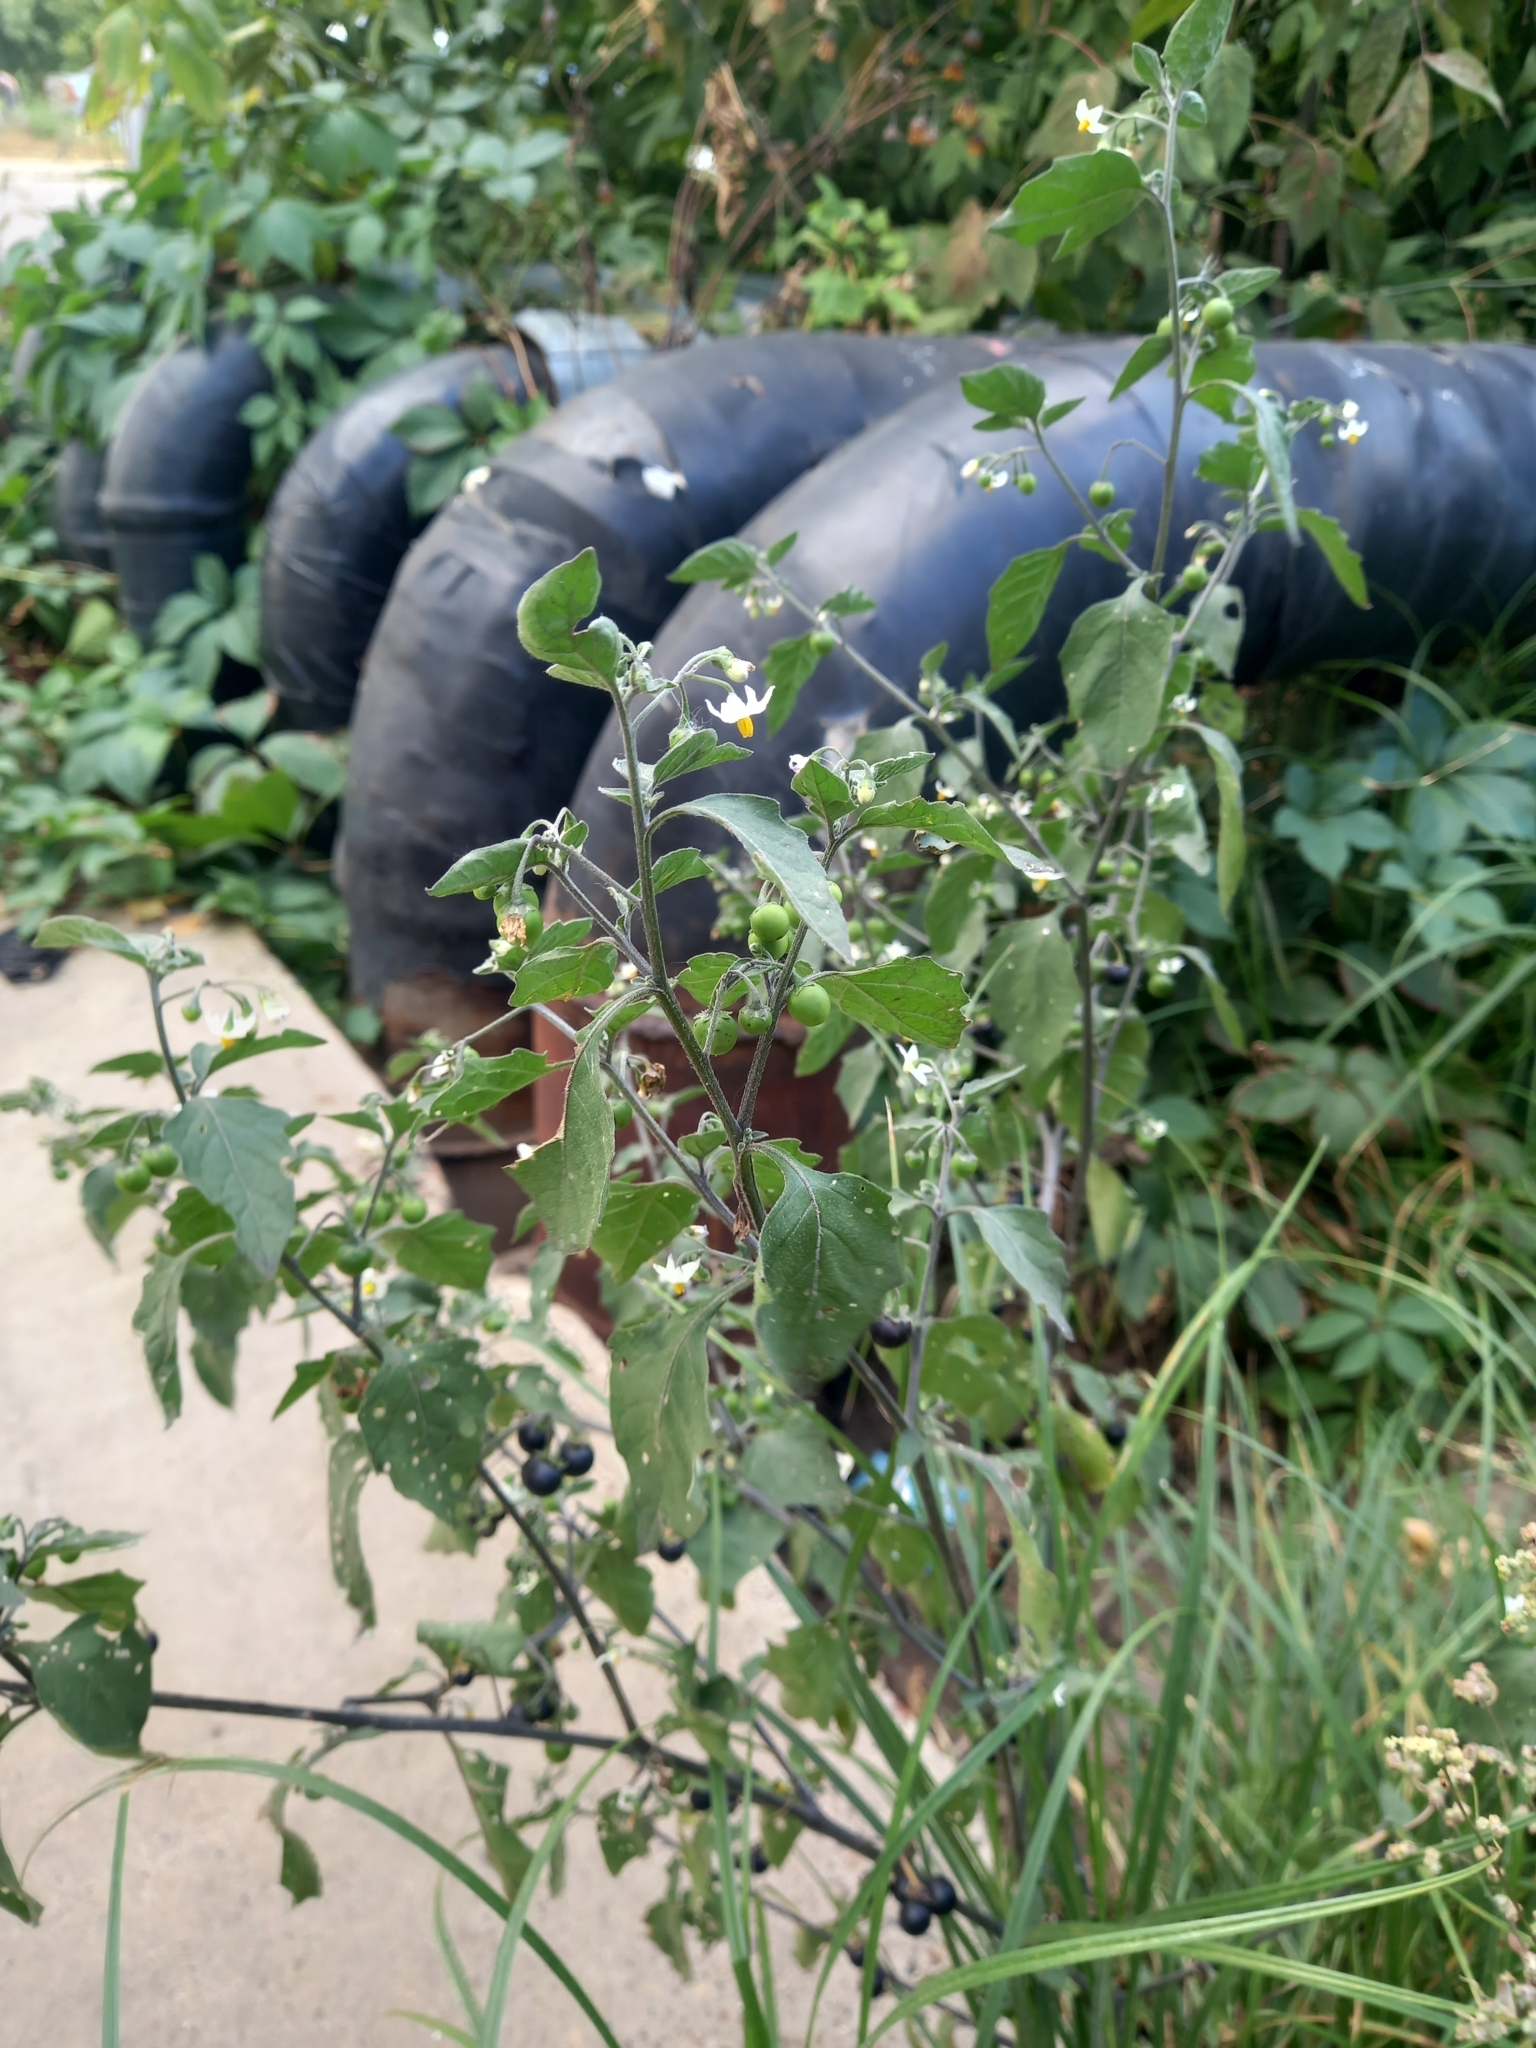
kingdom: Plantae
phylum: Tracheophyta
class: Magnoliopsida
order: Solanales
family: Solanaceae
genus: Solanum
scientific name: Solanum nigrum
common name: Black nightshade
